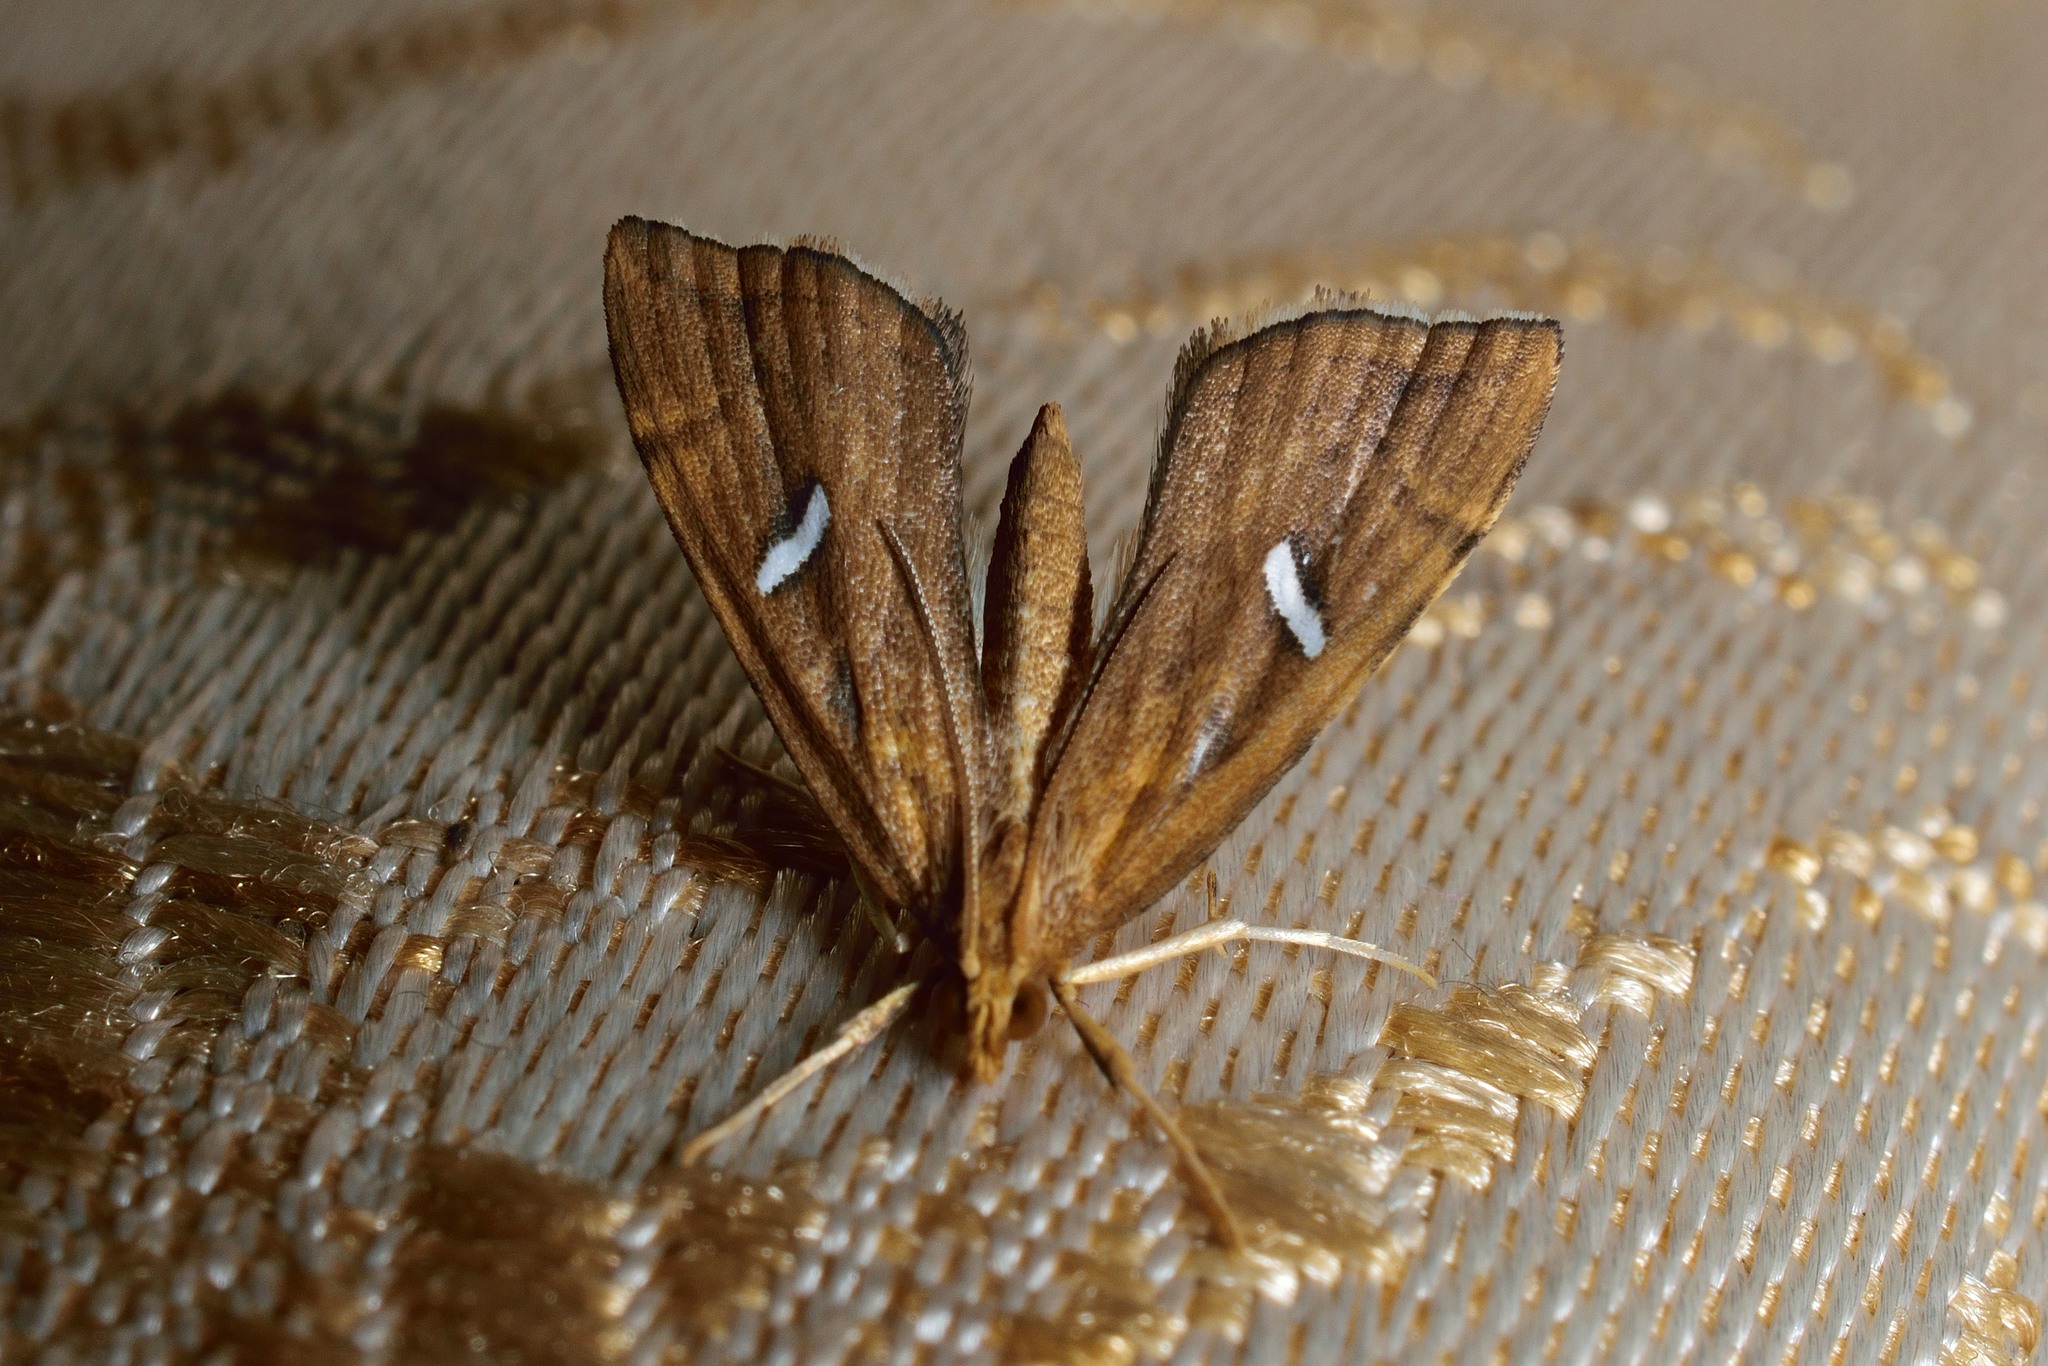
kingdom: Animalia
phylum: Arthropoda
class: Insecta
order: Lepidoptera
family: Pyralidae
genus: Uthinia
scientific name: Uthinia albisignalis
